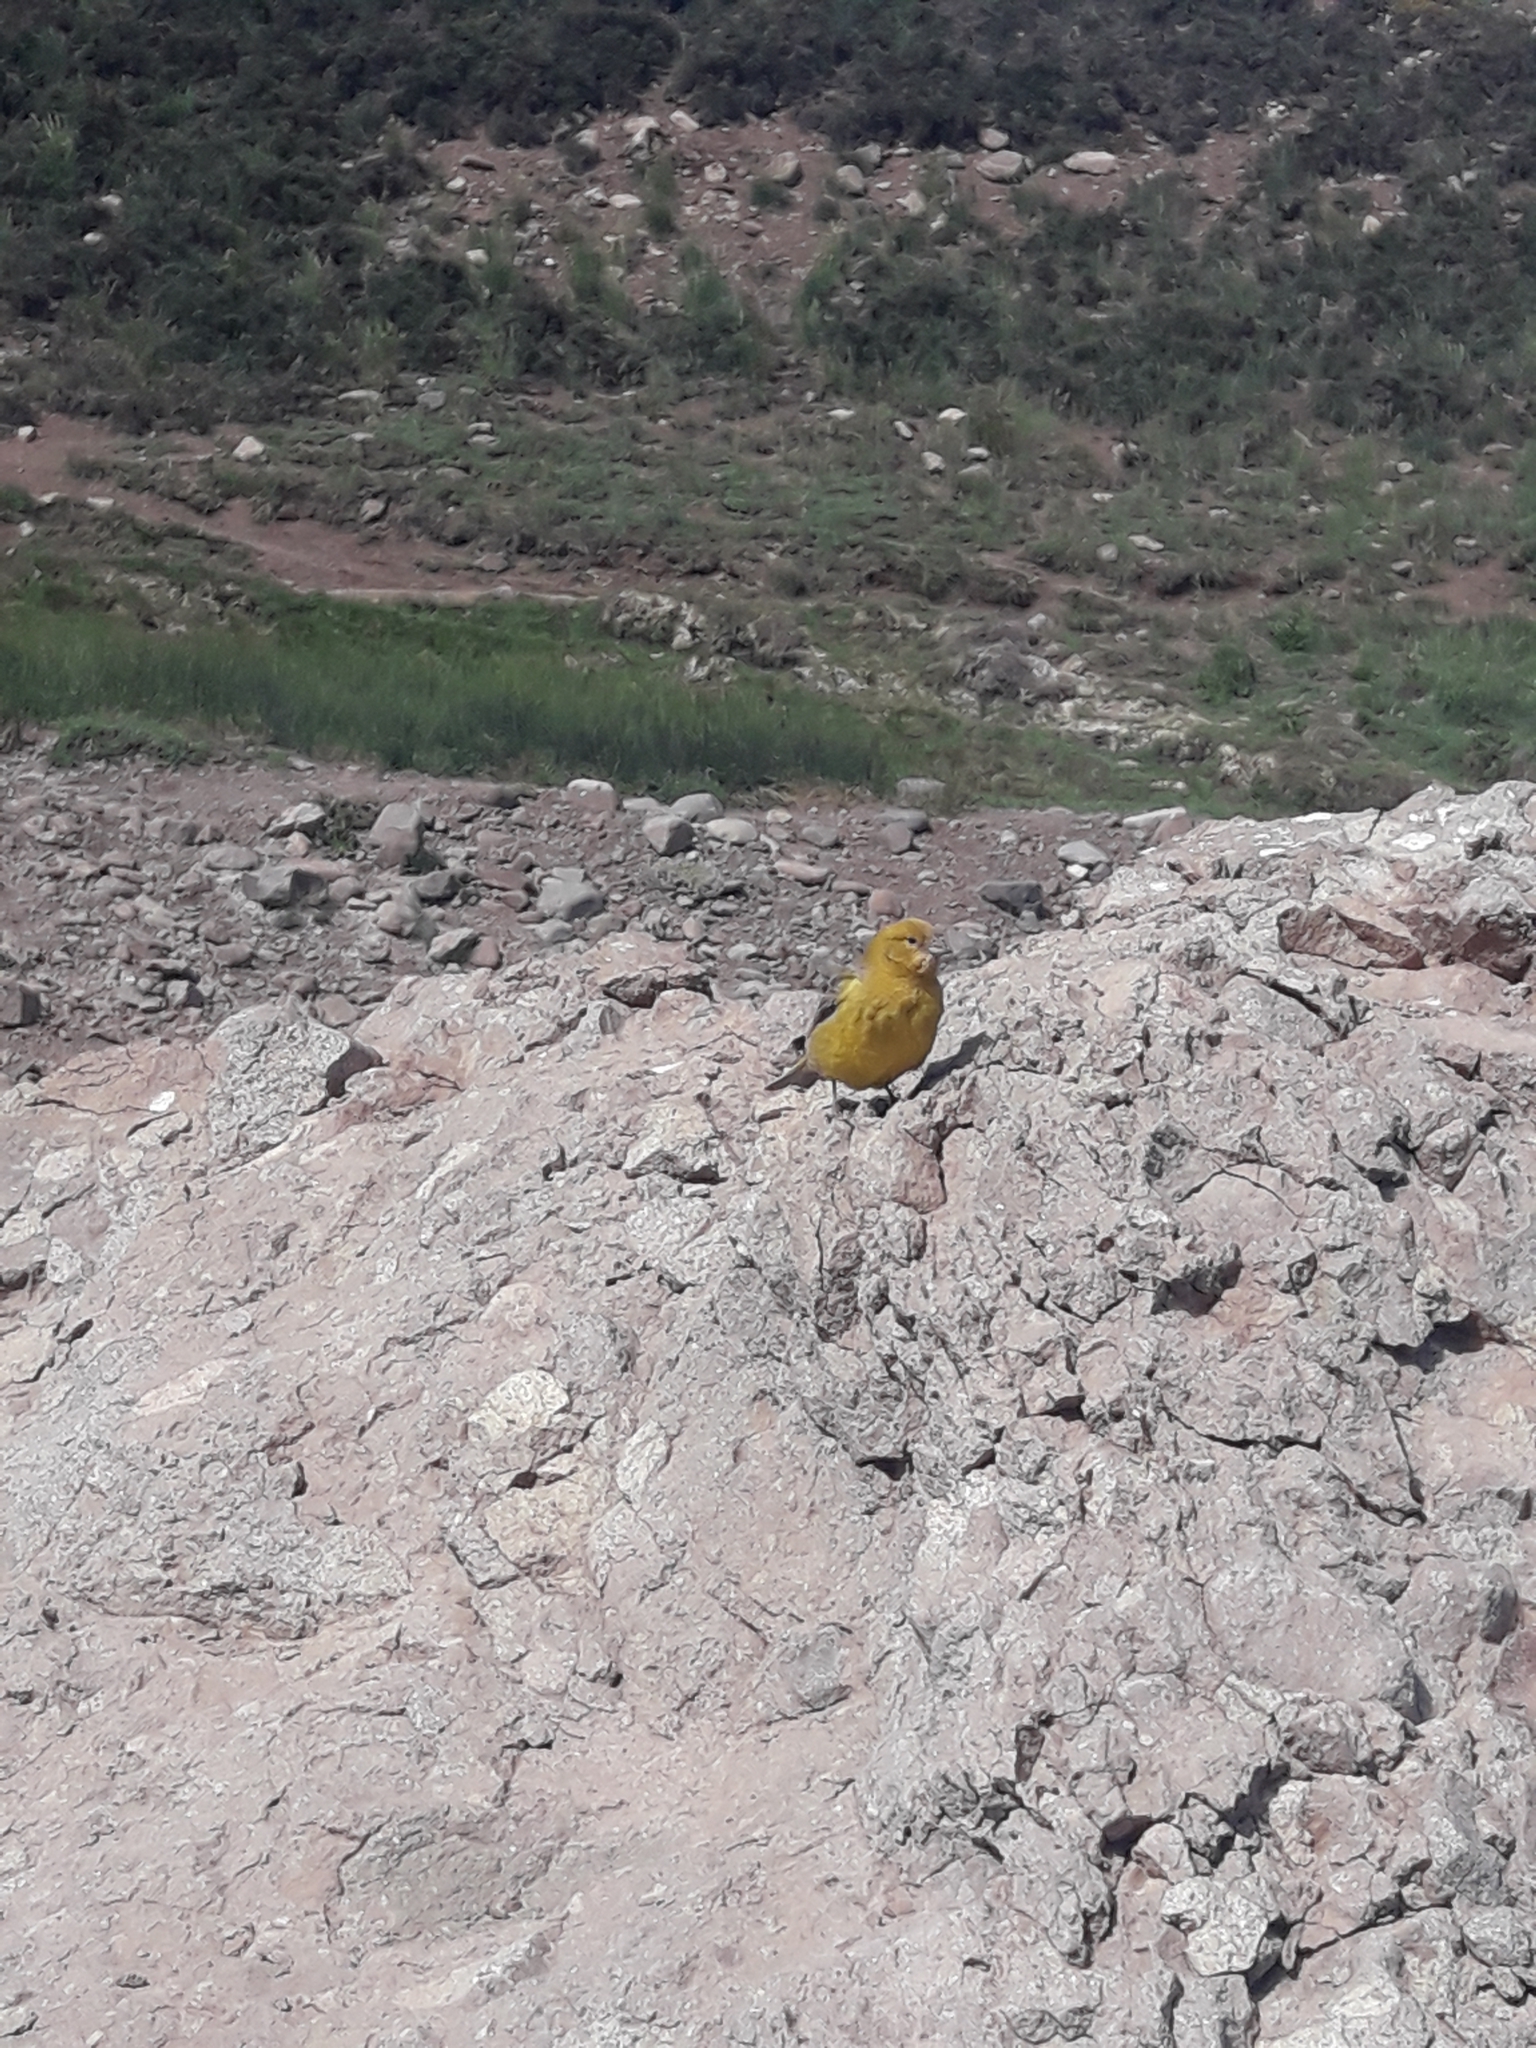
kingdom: Animalia
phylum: Chordata
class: Aves
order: Passeriformes
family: Thraupidae
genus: Sicalis
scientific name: Sicalis auriventris
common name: Greater yellow finch
